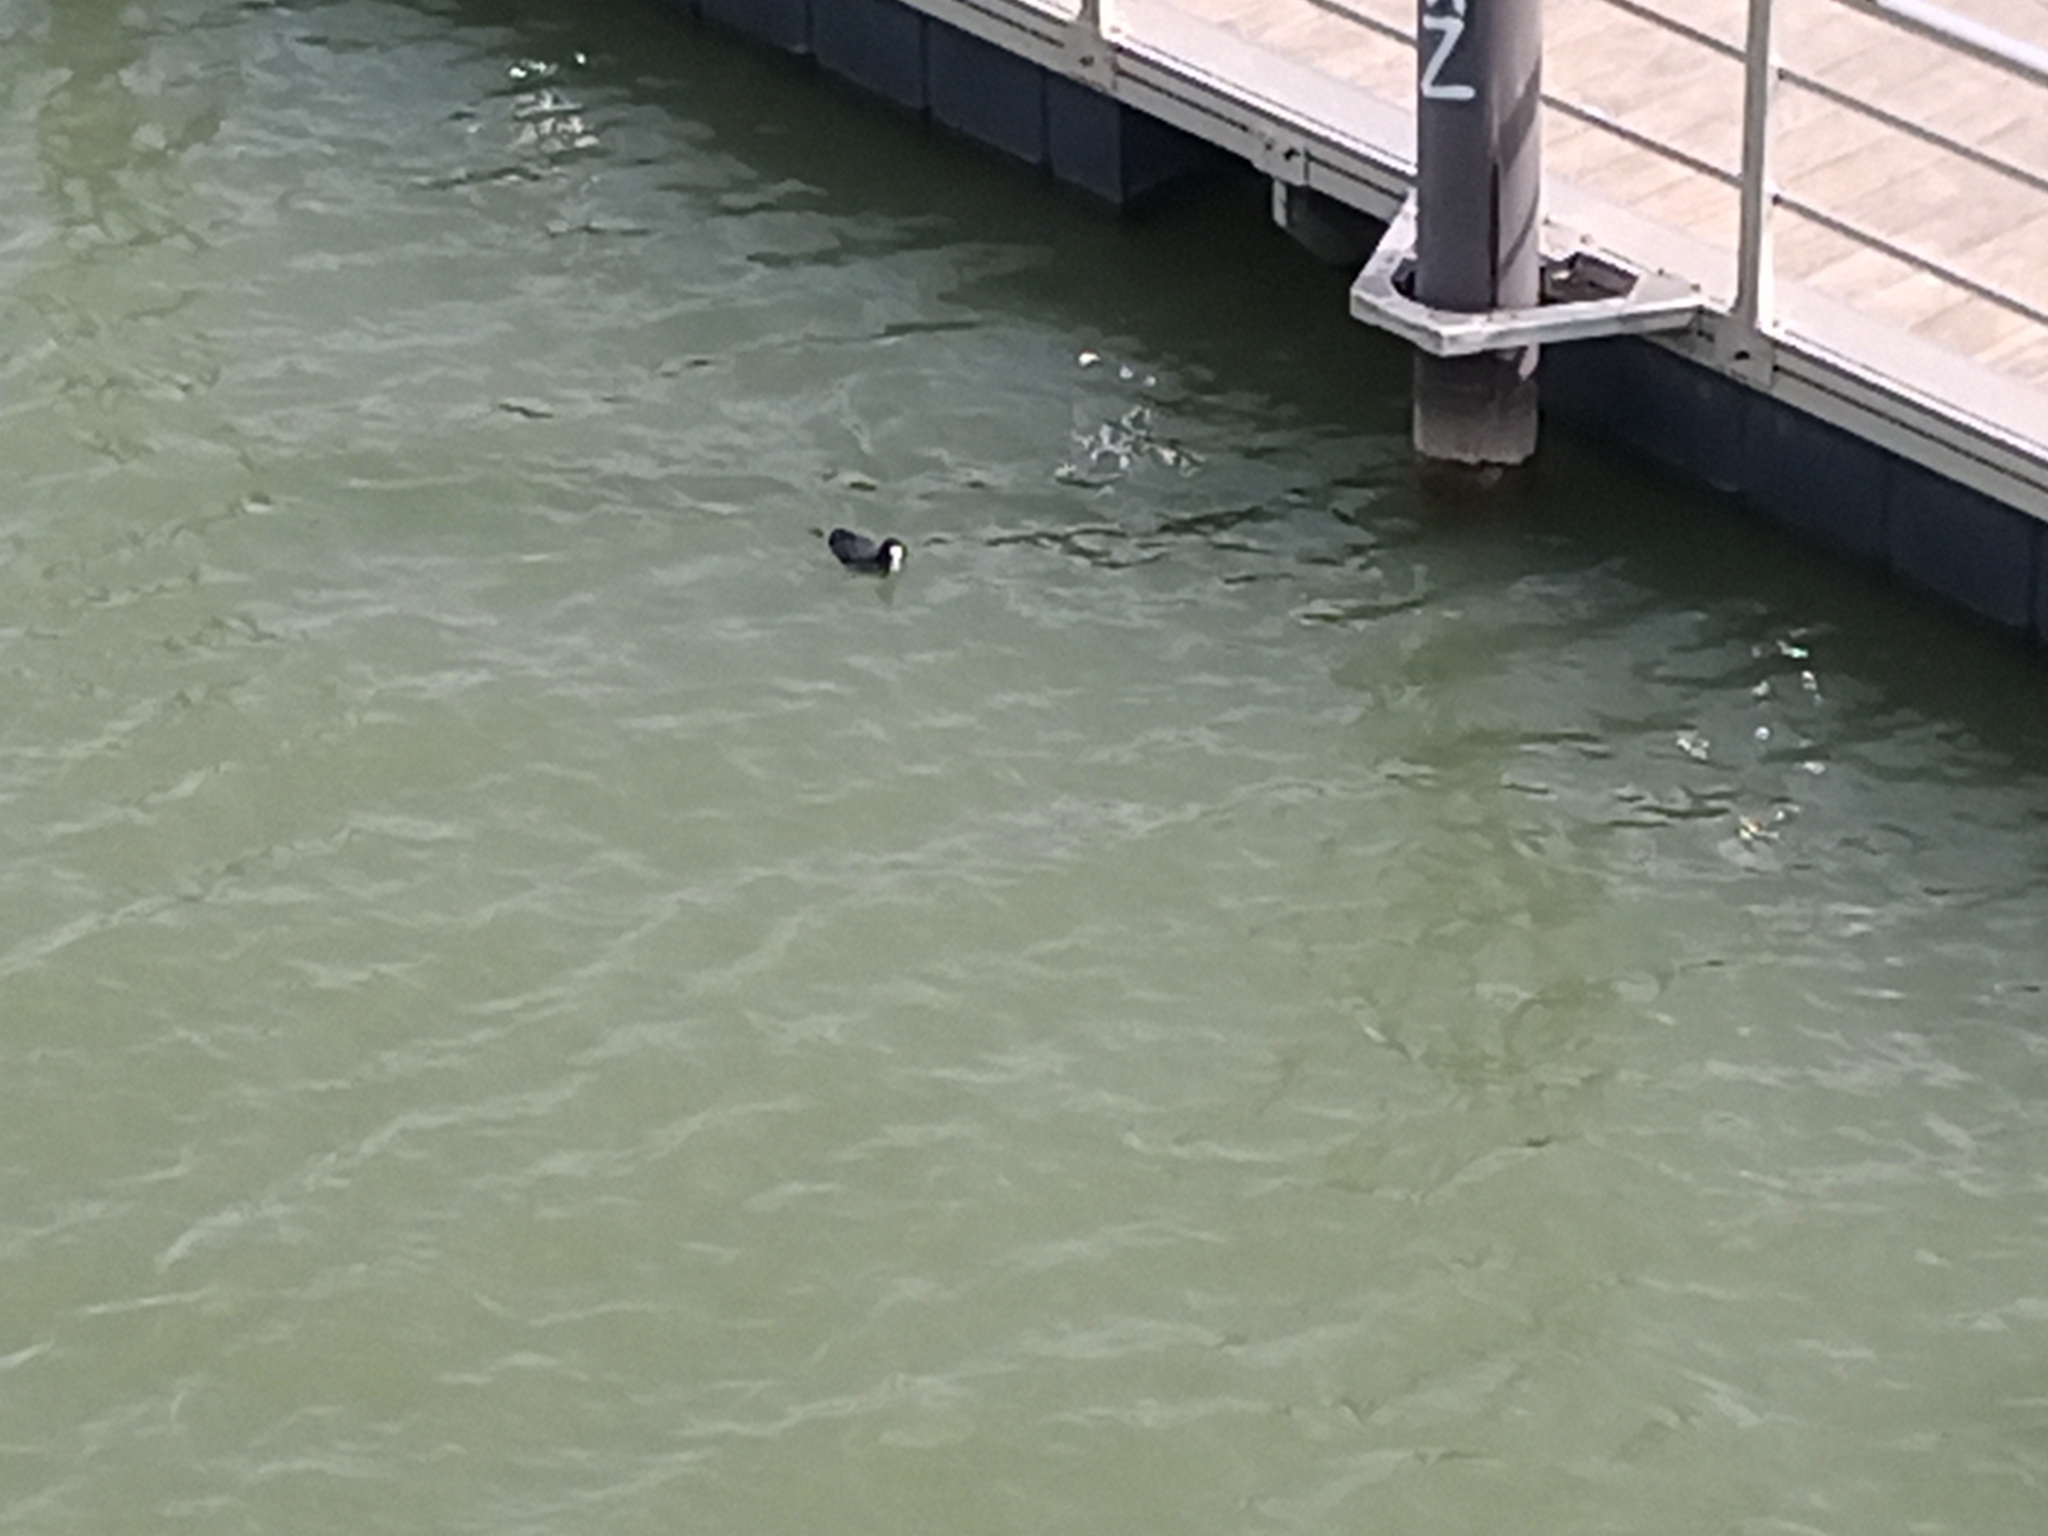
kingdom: Animalia
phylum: Chordata
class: Aves
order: Gruiformes
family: Rallidae
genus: Fulica
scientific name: Fulica atra
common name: Eurasian coot
